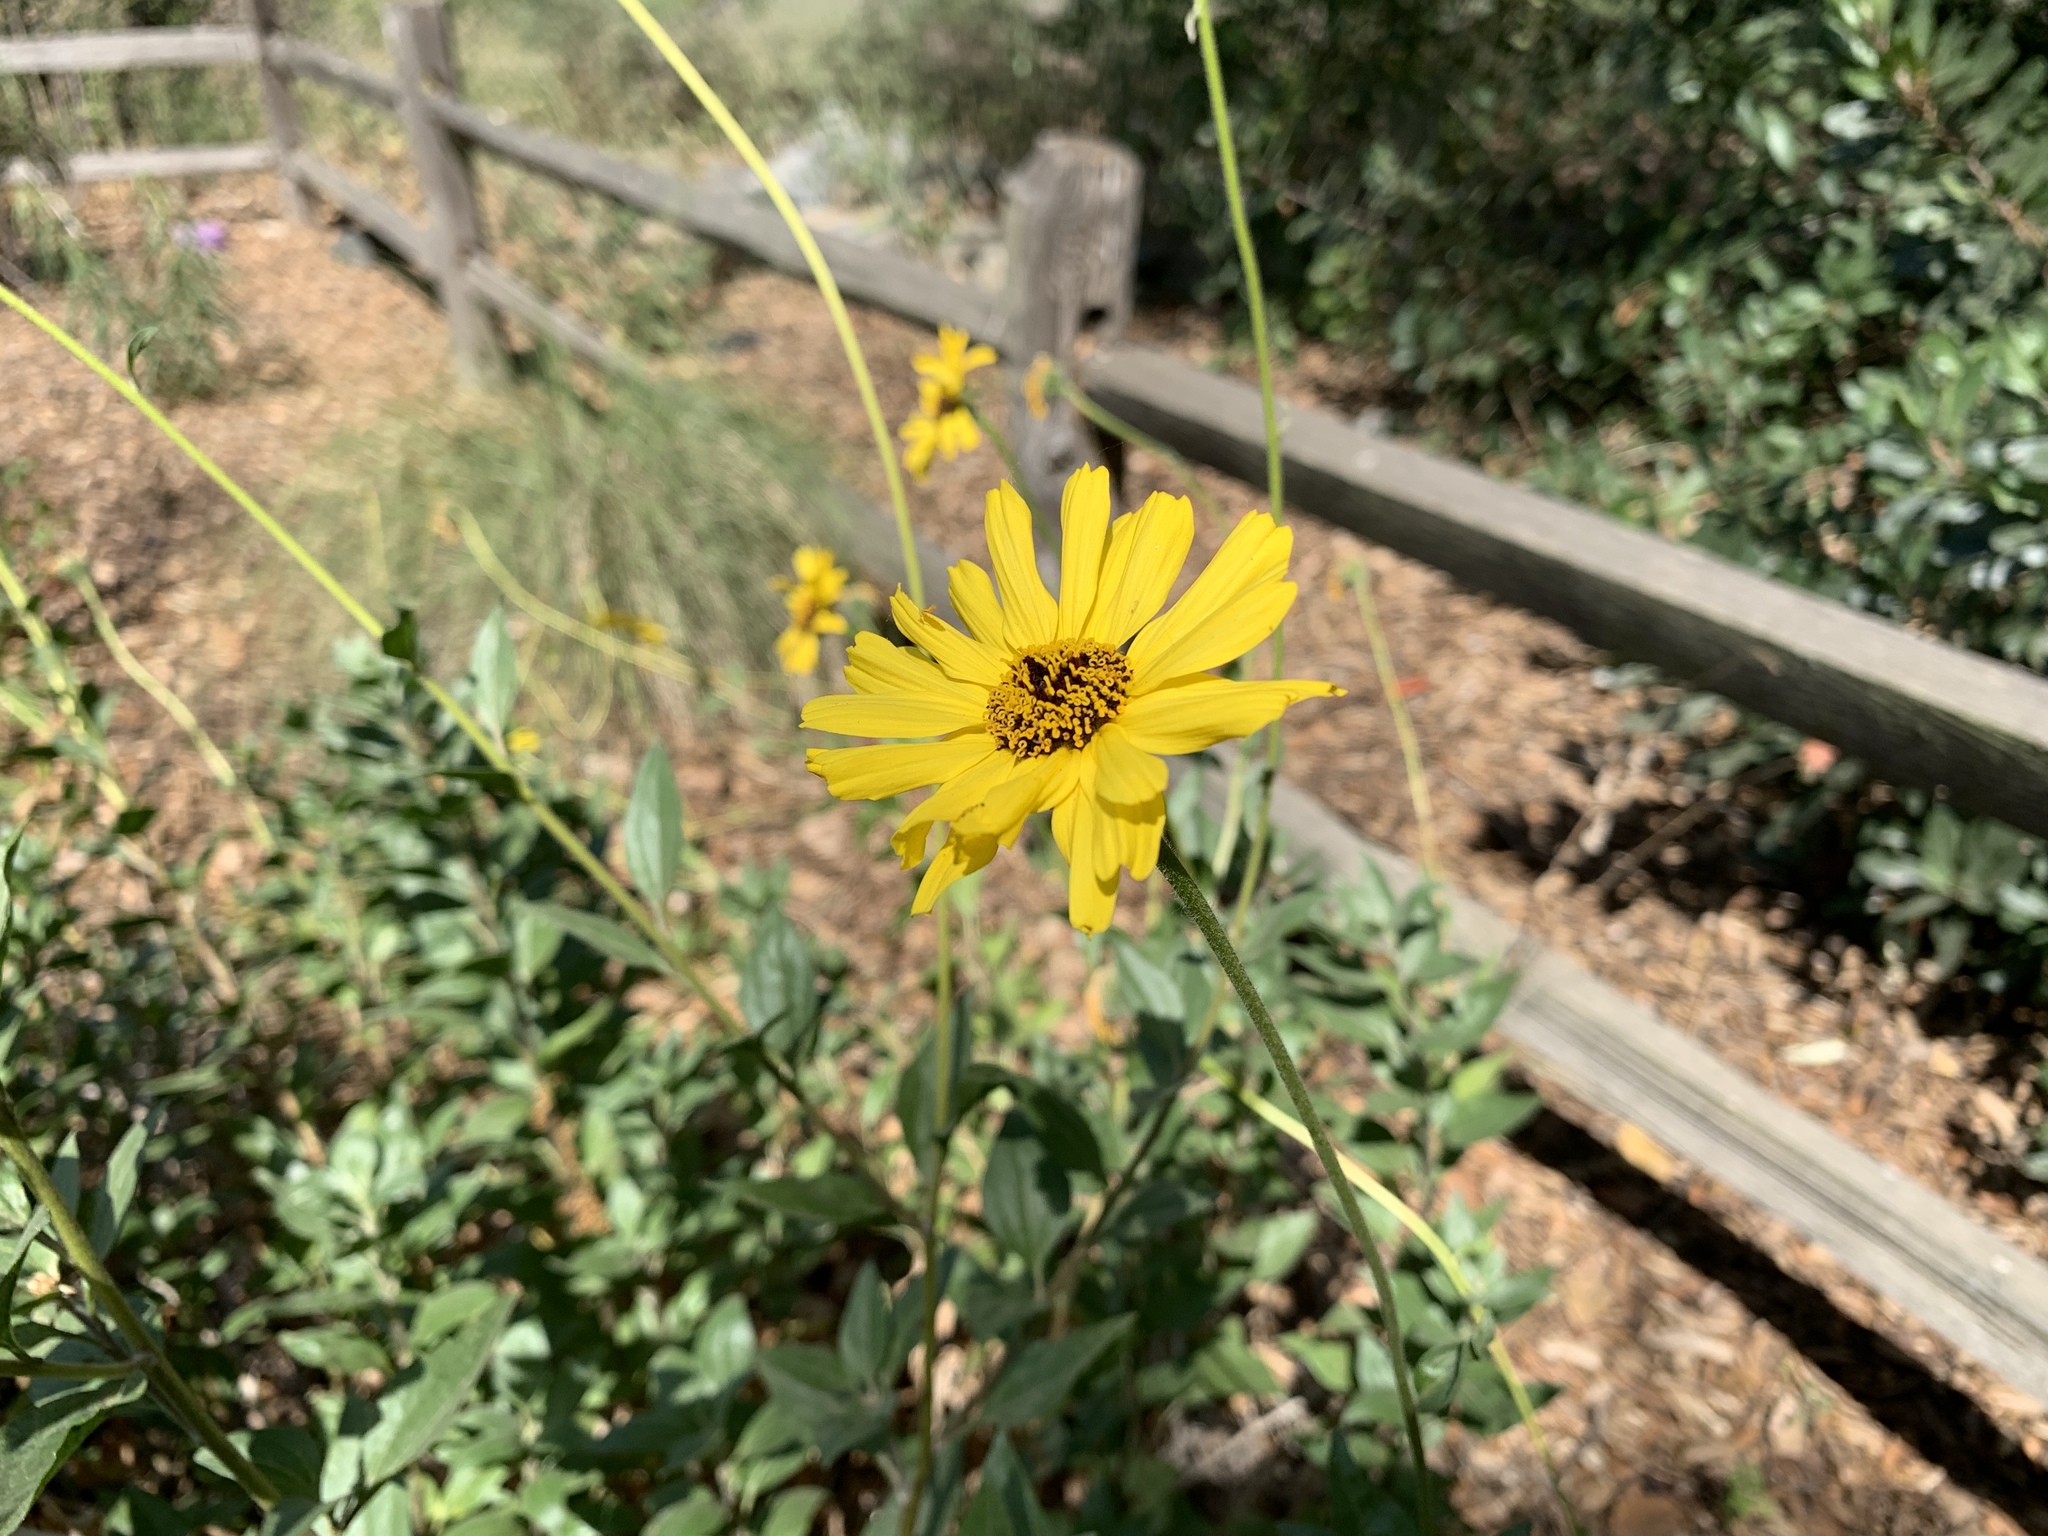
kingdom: Plantae
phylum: Tracheophyta
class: Magnoliopsida
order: Asterales
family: Asteraceae
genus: Encelia
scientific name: Encelia californica
